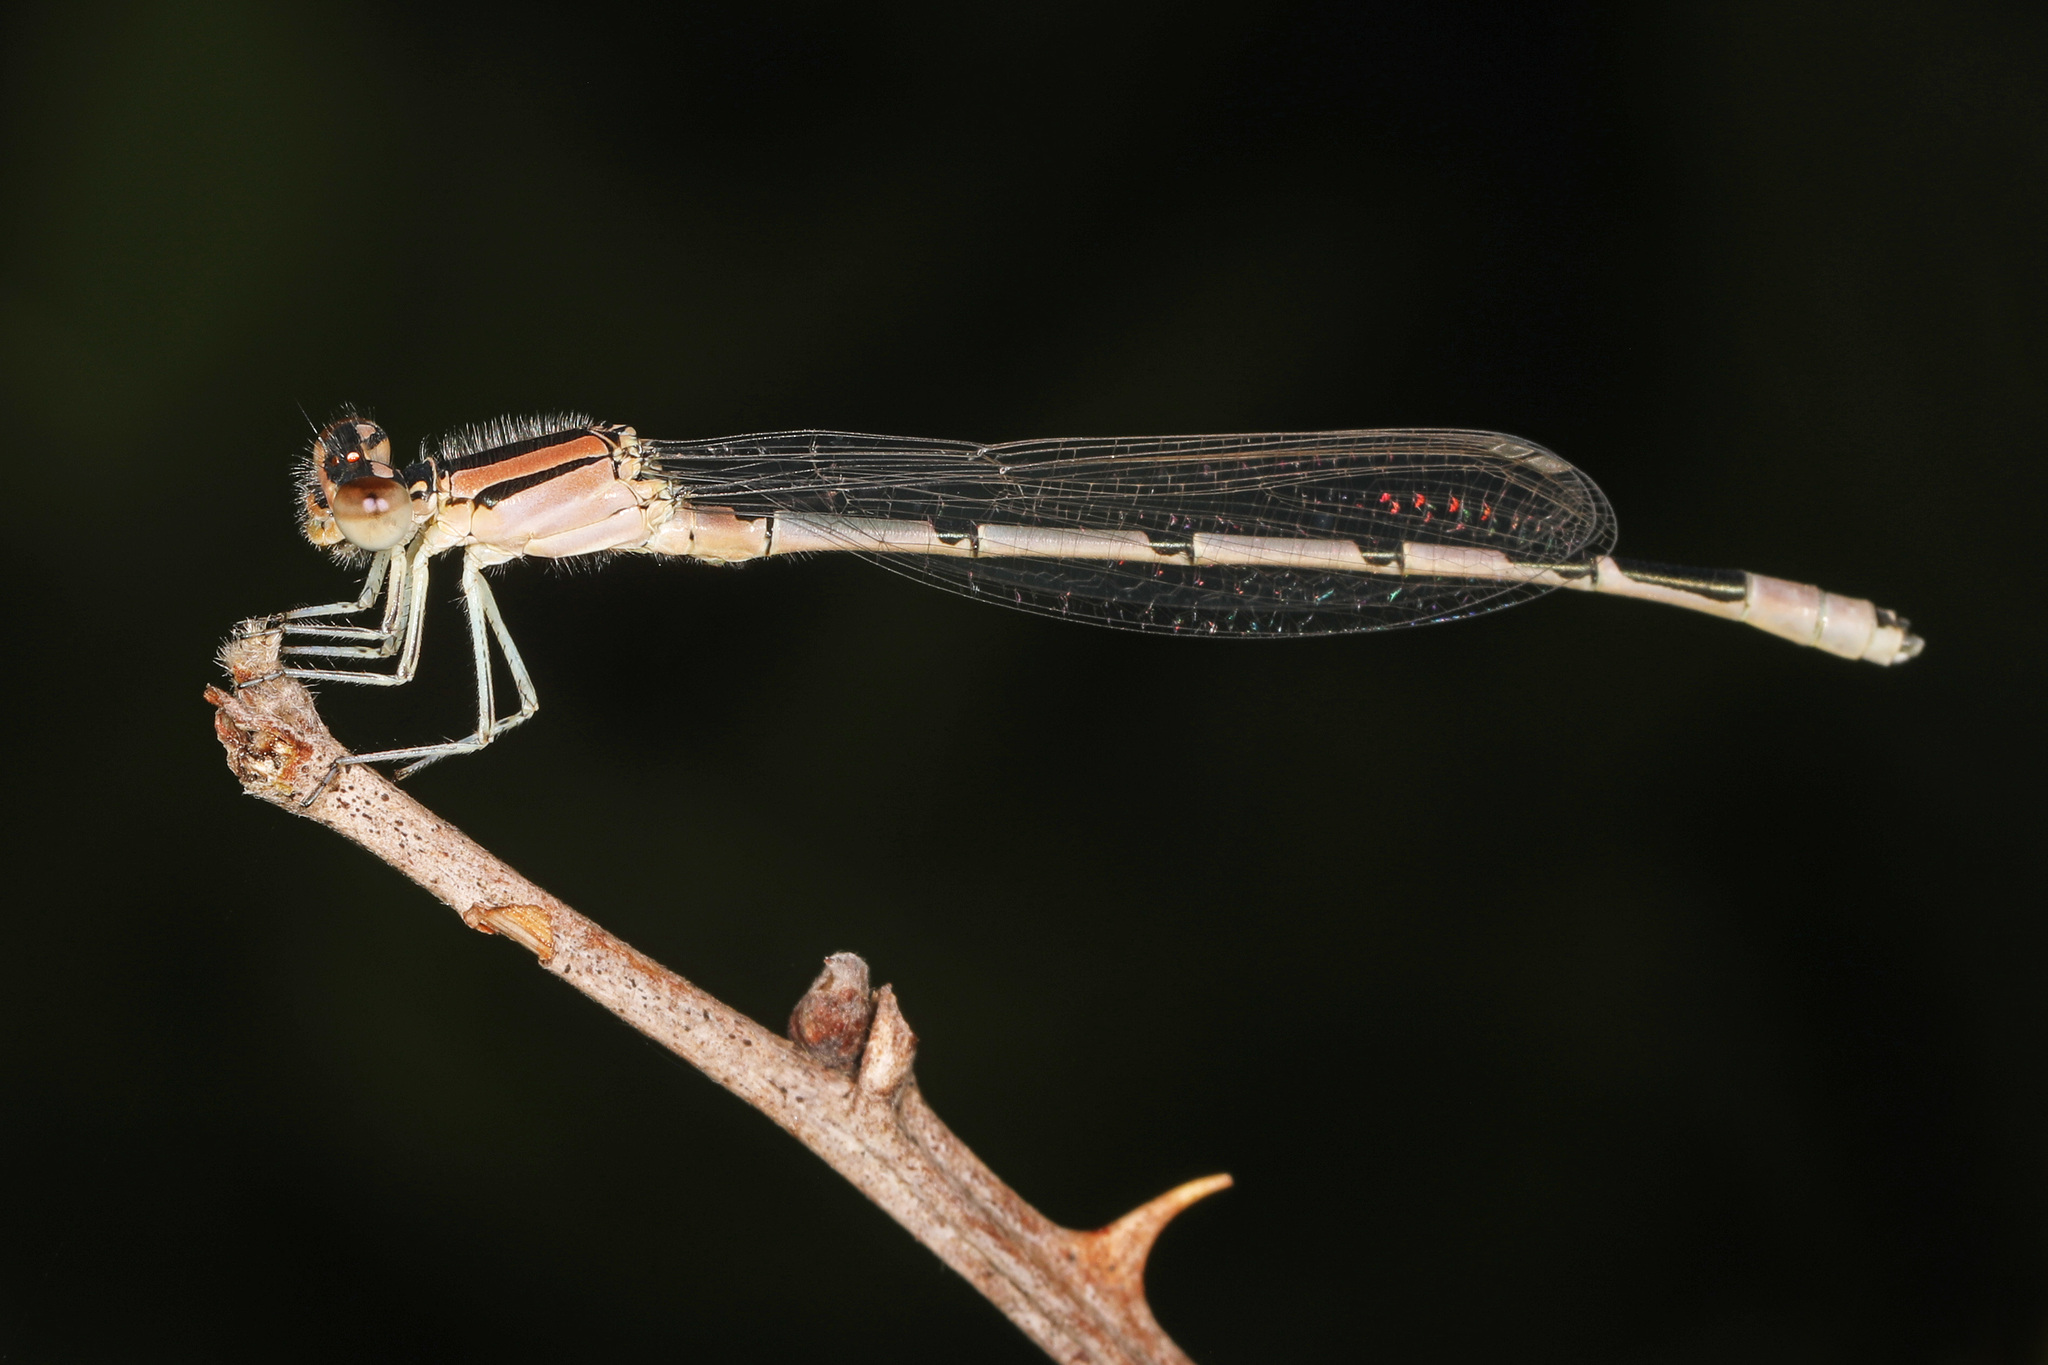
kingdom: Animalia
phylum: Arthropoda
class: Insecta
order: Odonata
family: Coenagrionidae
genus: Enallagma
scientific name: Enallagma civile
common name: Damselfly
